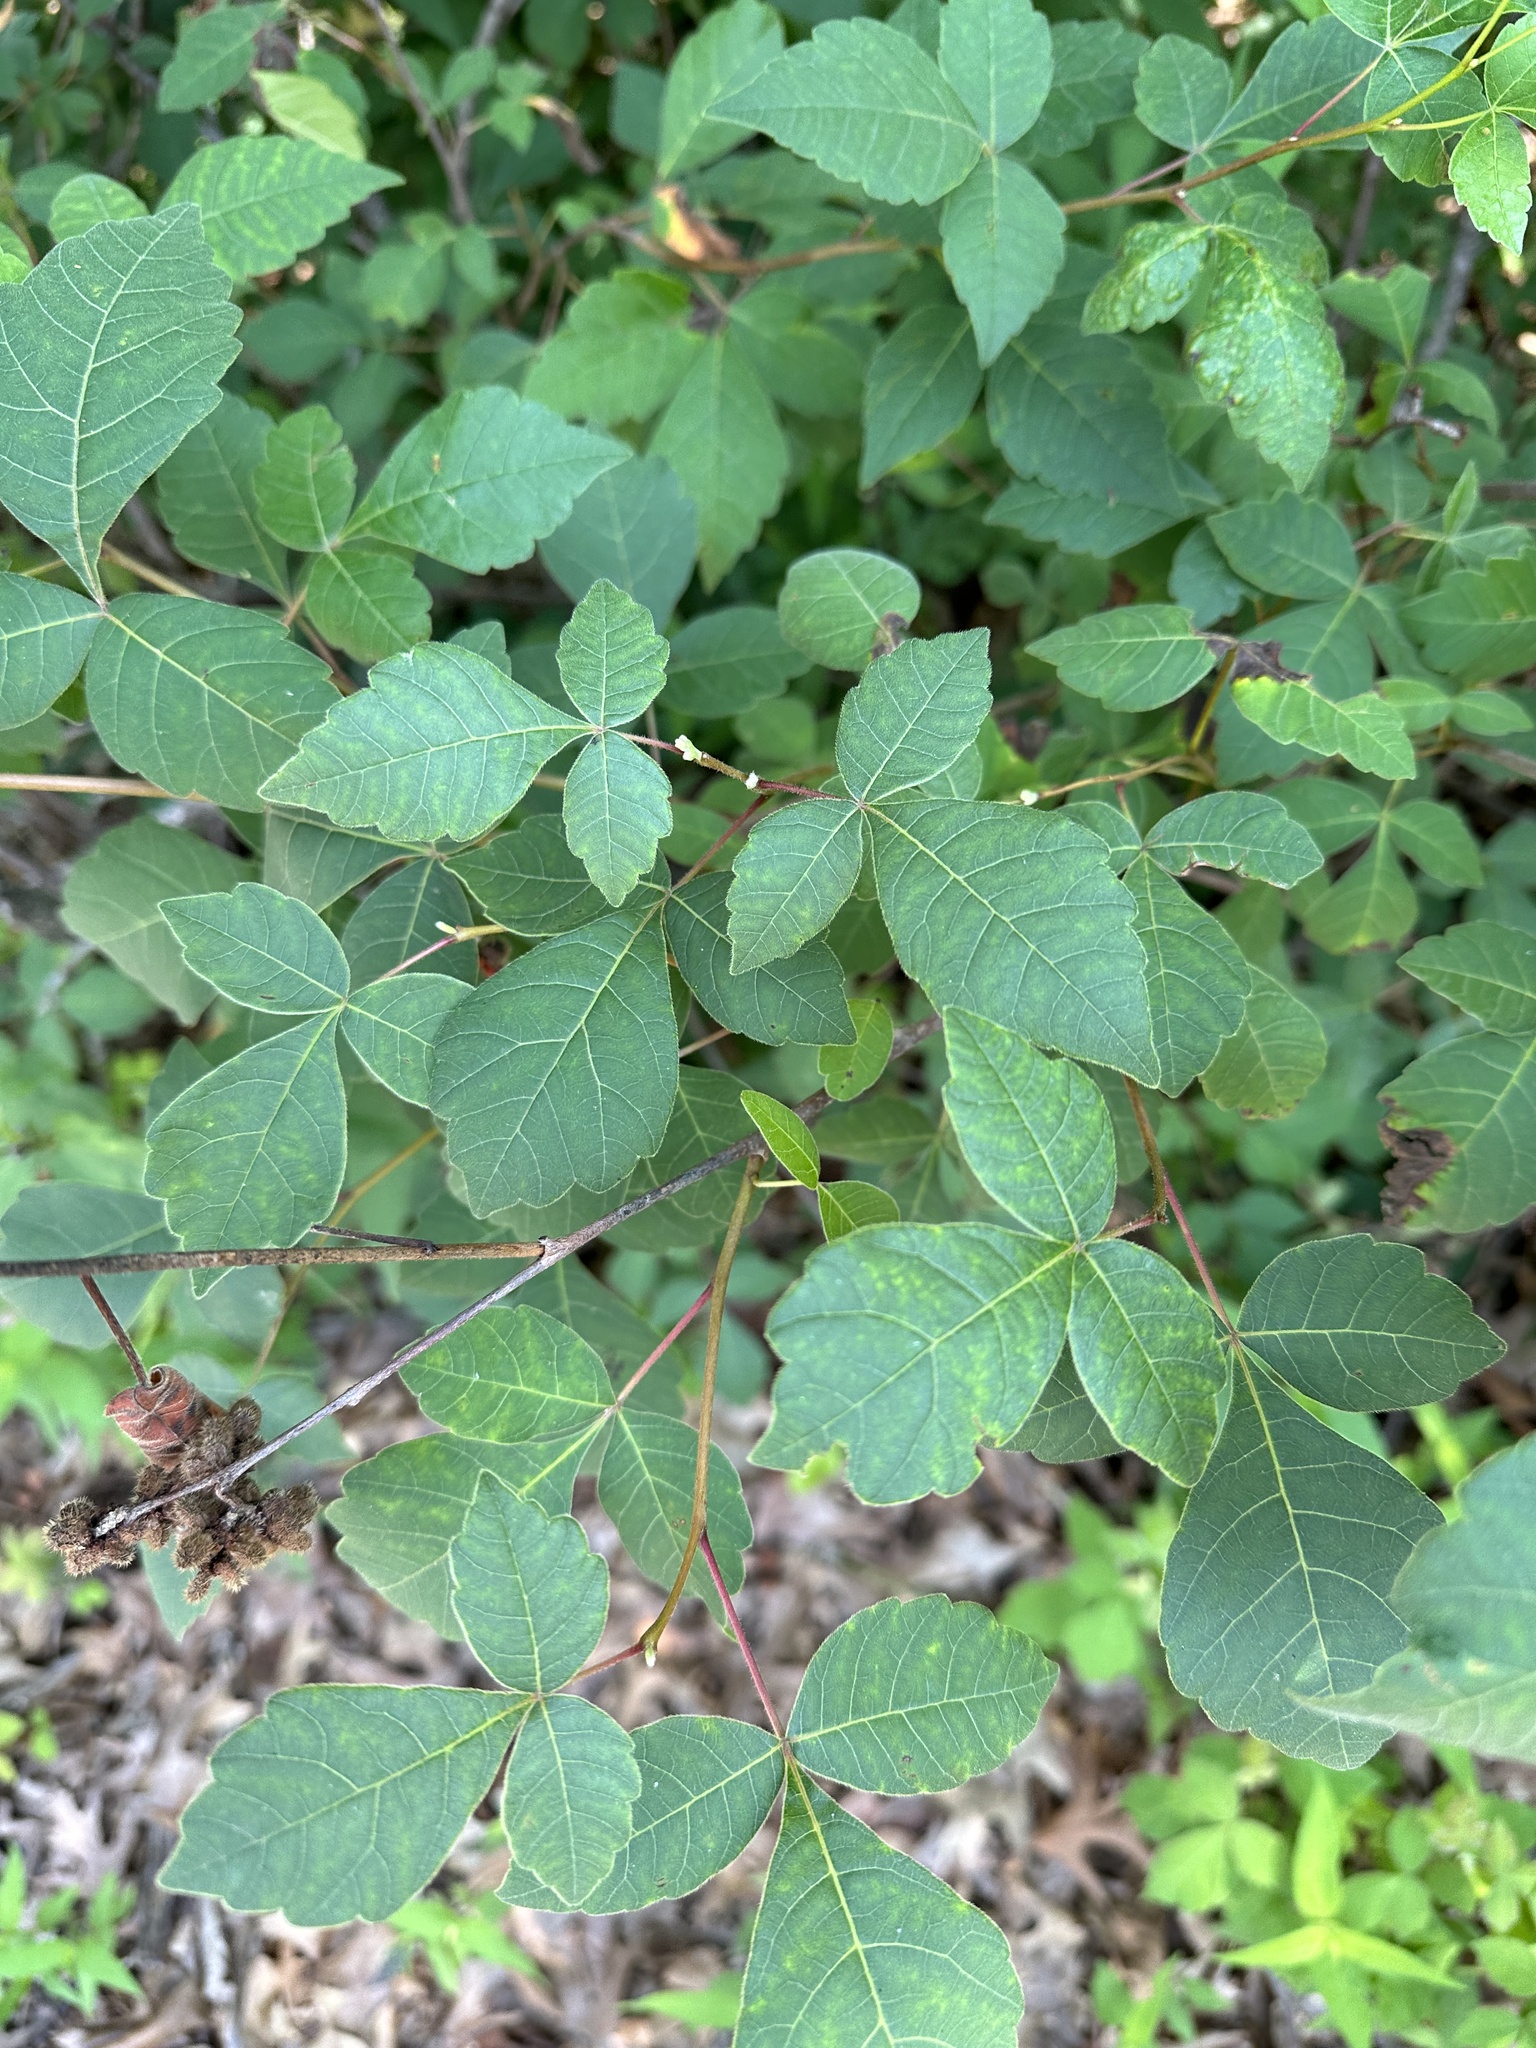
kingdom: Plantae
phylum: Tracheophyta
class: Magnoliopsida
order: Sapindales
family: Anacardiaceae
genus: Rhus
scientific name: Rhus aromatica
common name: Aromatic sumac
